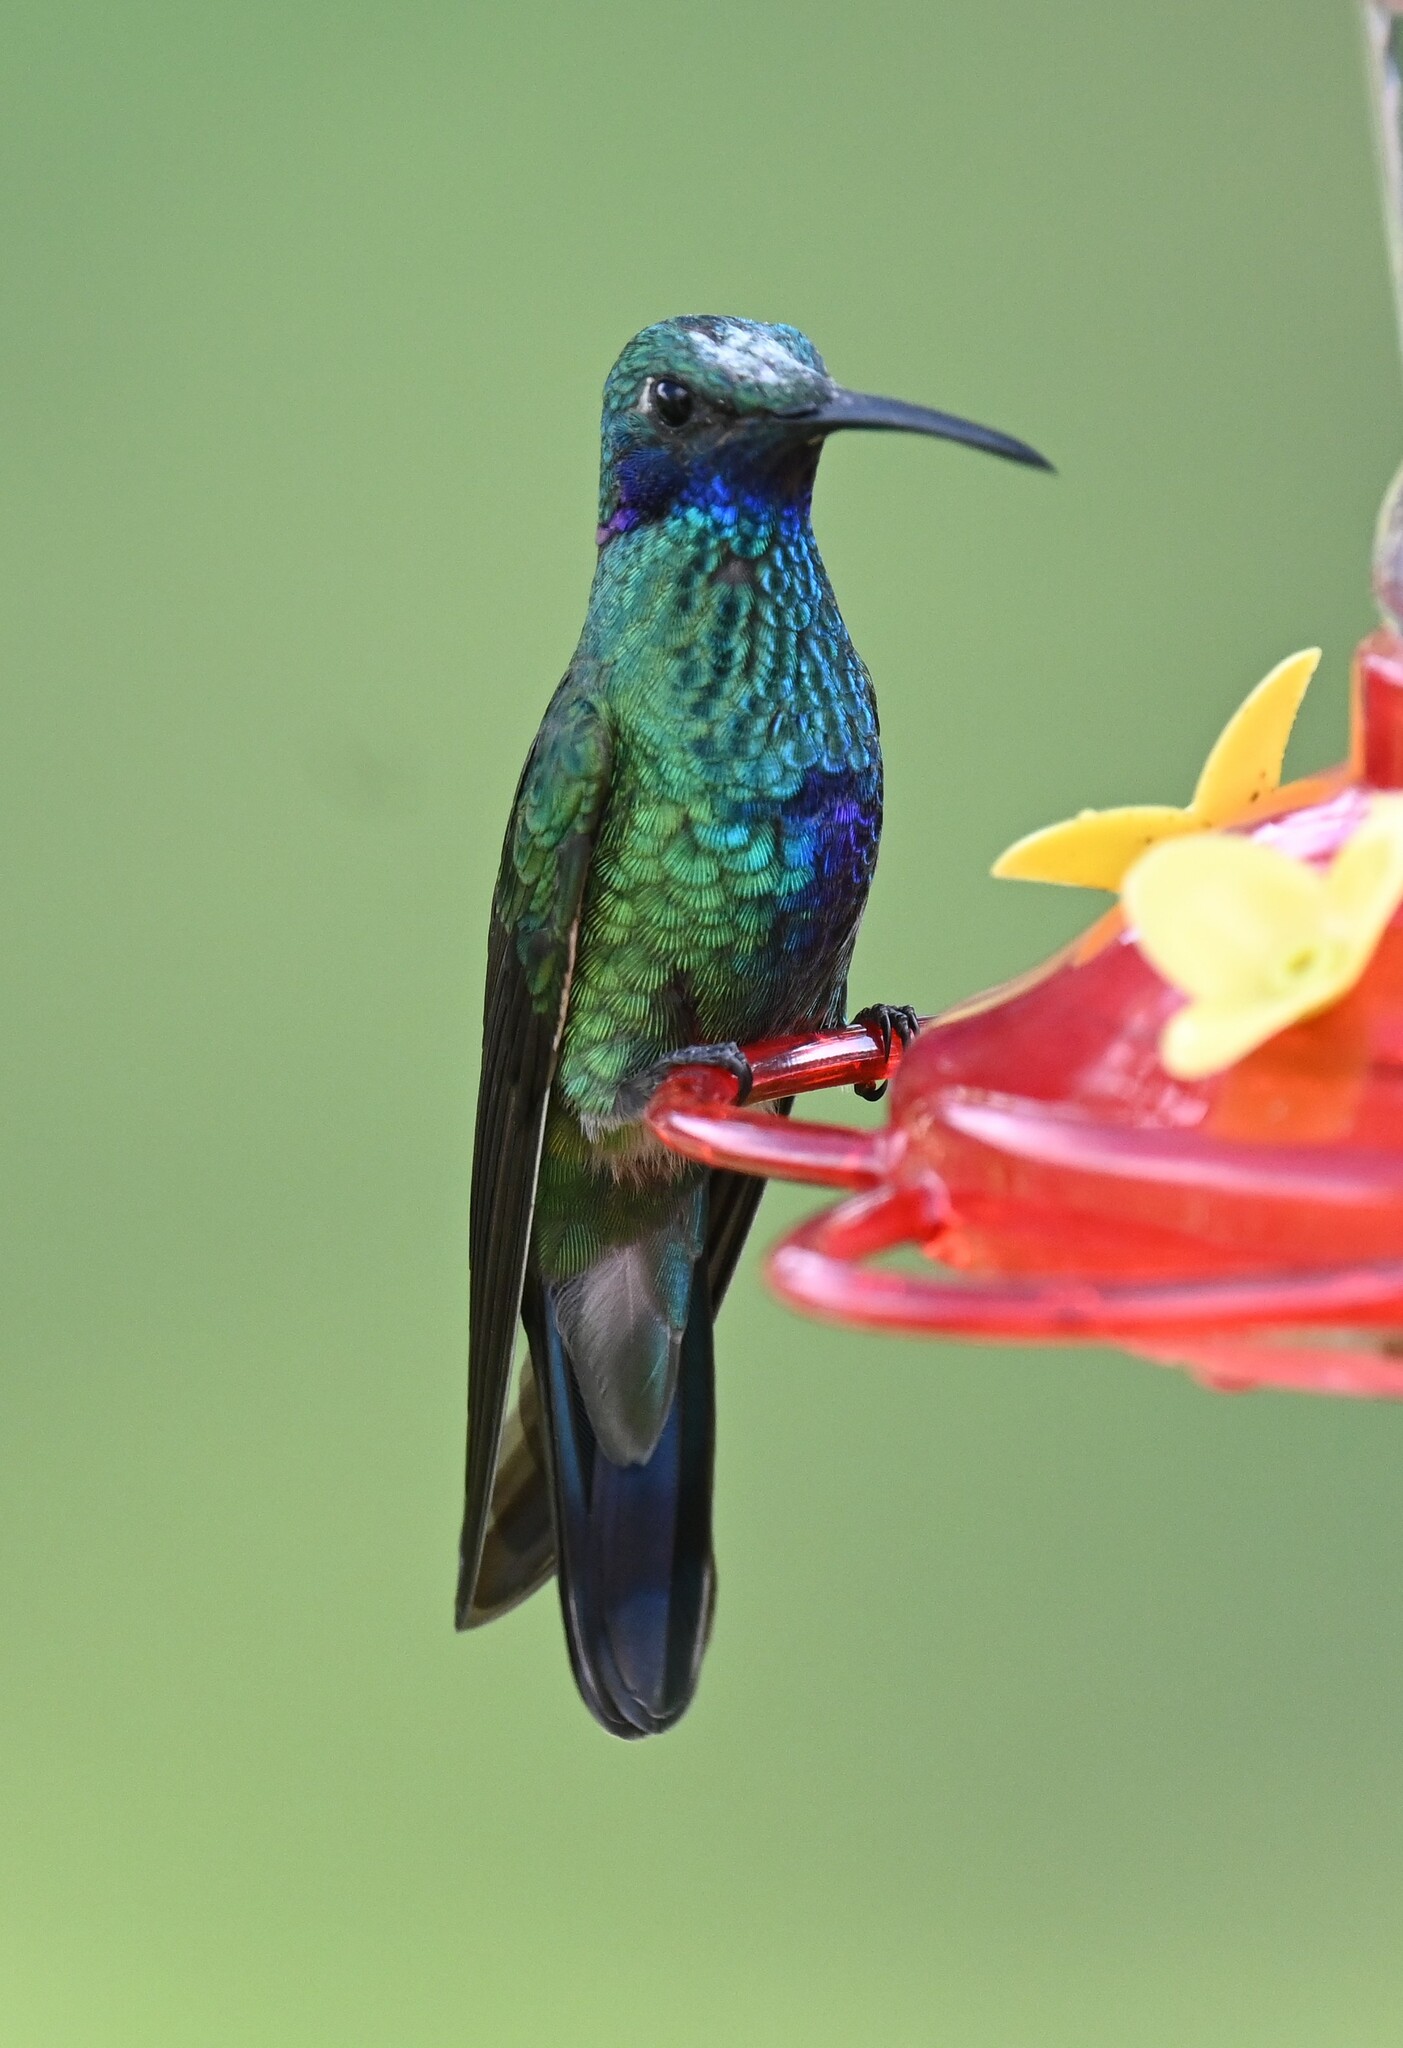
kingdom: Animalia
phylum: Chordata
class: Aves
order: Apodiformes
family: Trochilidae
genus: Colibri
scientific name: Colibri coruscans
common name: Sparkling violetear
